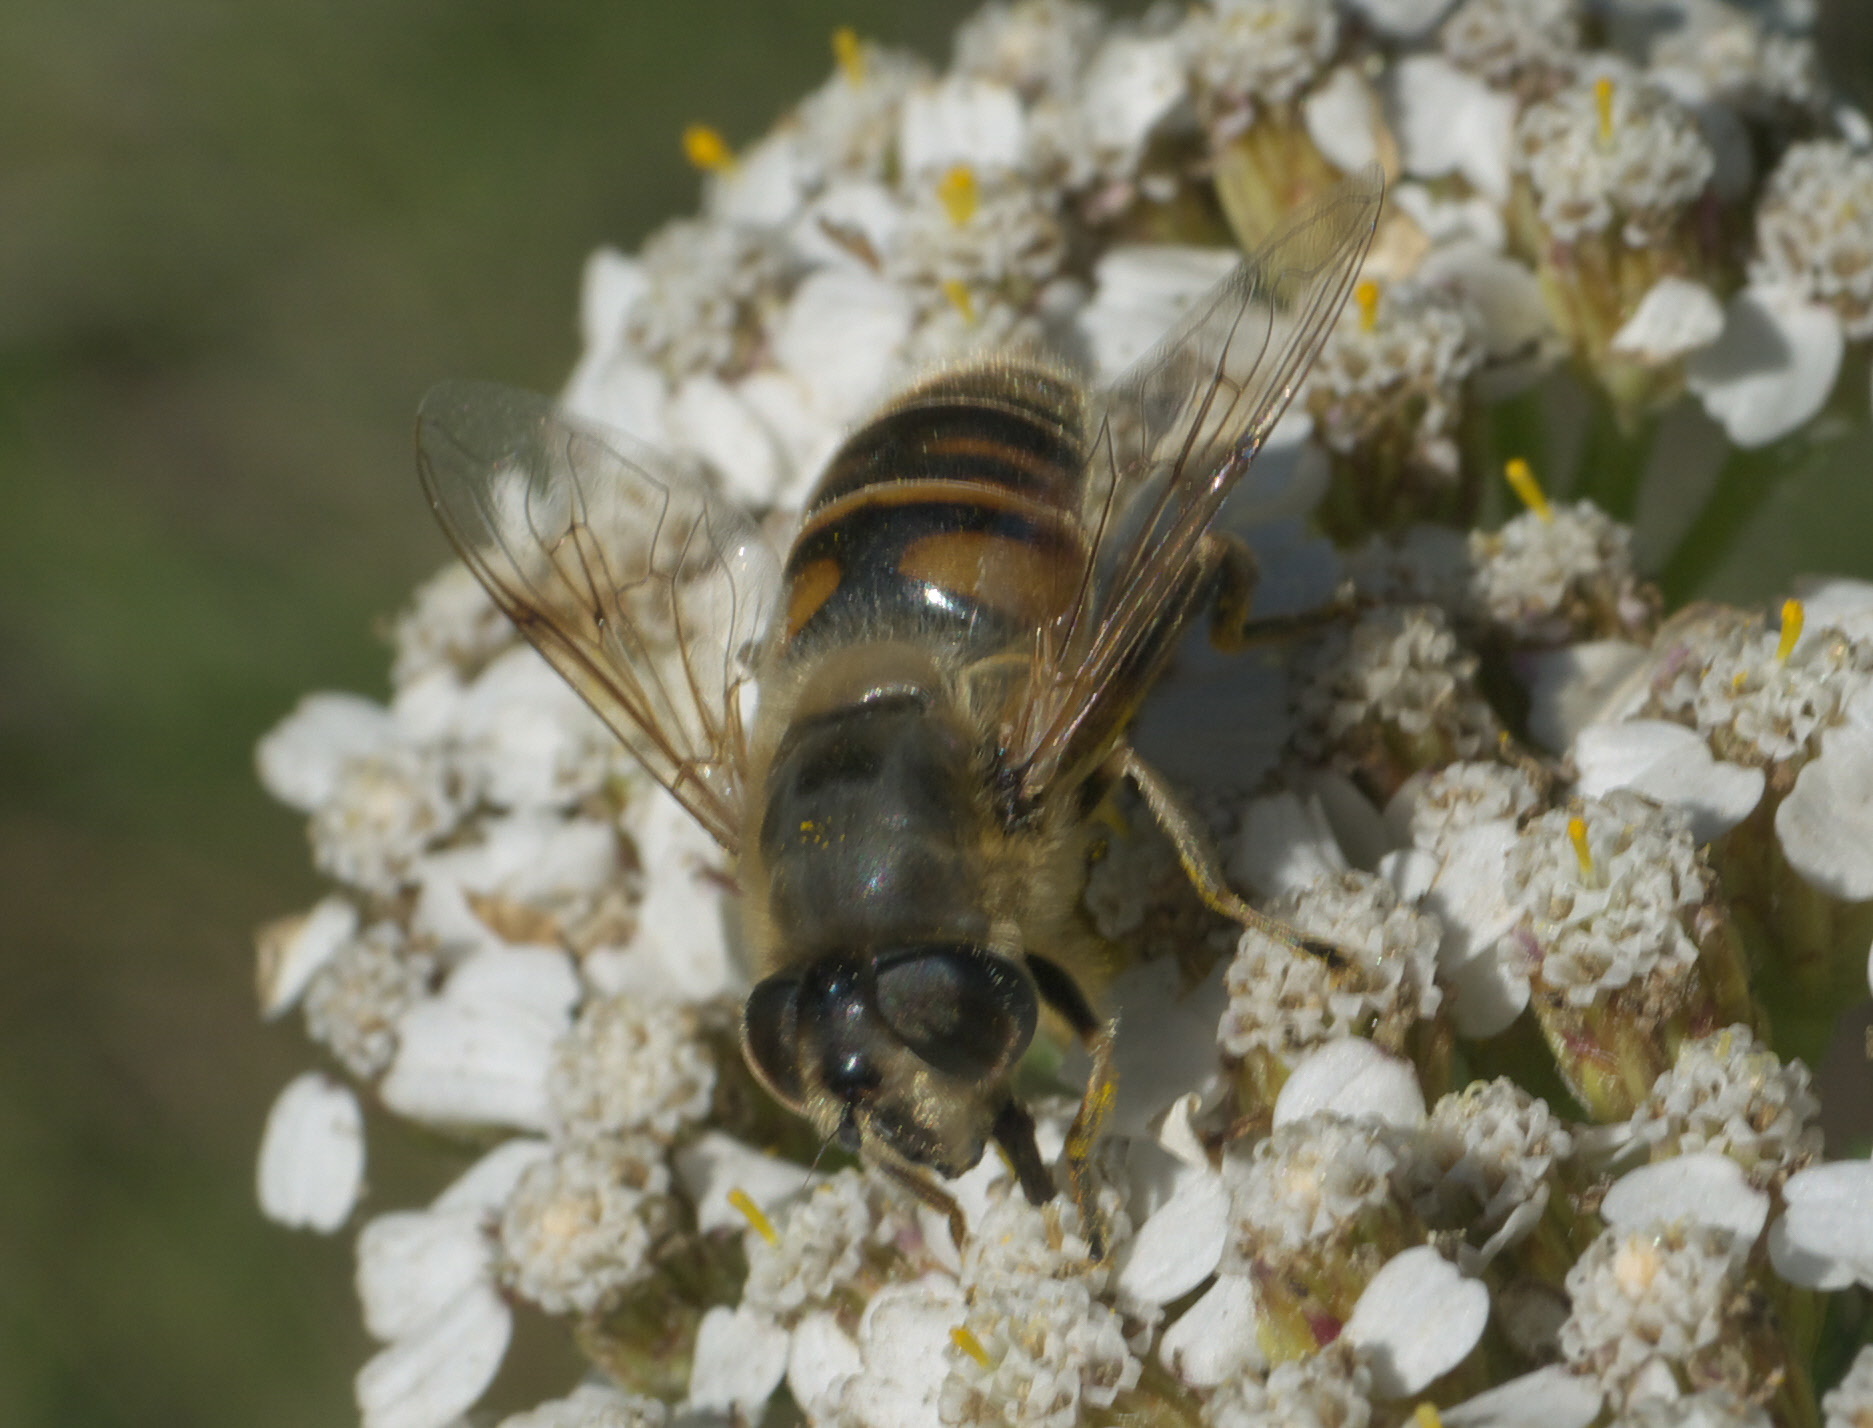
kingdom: Animalia
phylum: Arthropoda
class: Insecta
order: Diptera
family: Syrphidae
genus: Eristalis
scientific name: Eristalis tenax
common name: Drone fly
